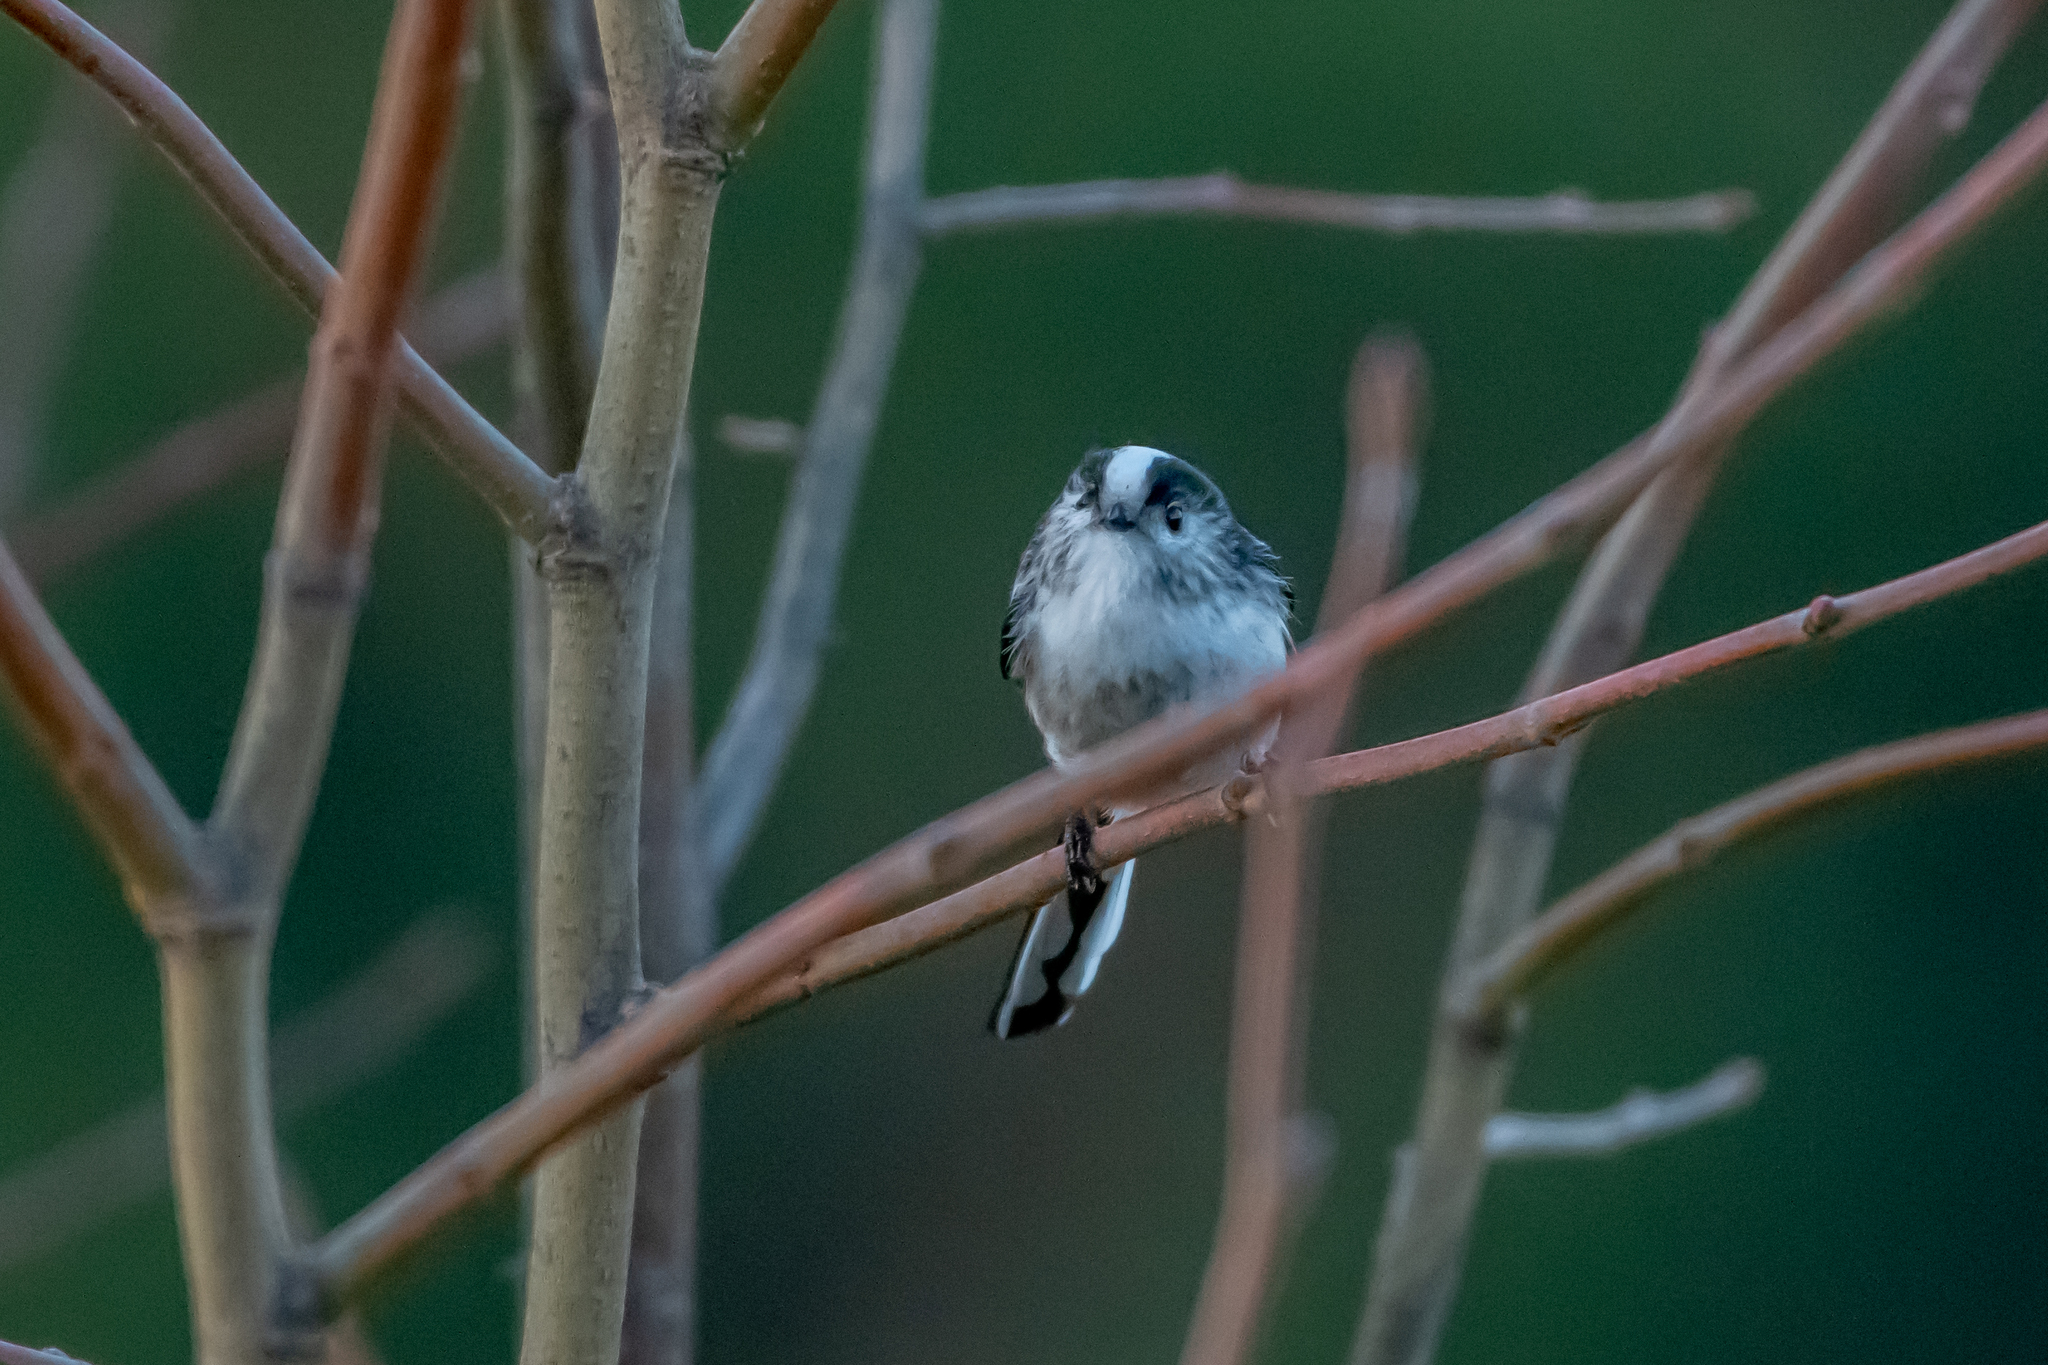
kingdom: Animalia
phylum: Chordata
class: Aves
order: Passeriformes
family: Aegithalidae
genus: Aegithalos
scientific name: Aegithalos caudatus
